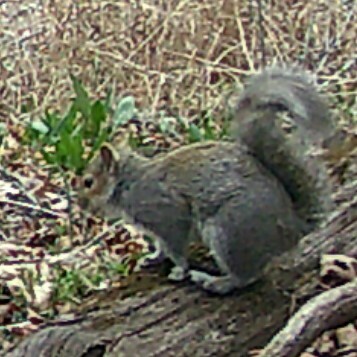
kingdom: Animalia
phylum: Chordata
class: Mammalia
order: Rodentia
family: Sciuridae
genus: Sciurus
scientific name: Sciurus carolinensis
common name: Eastern gray squirrel
